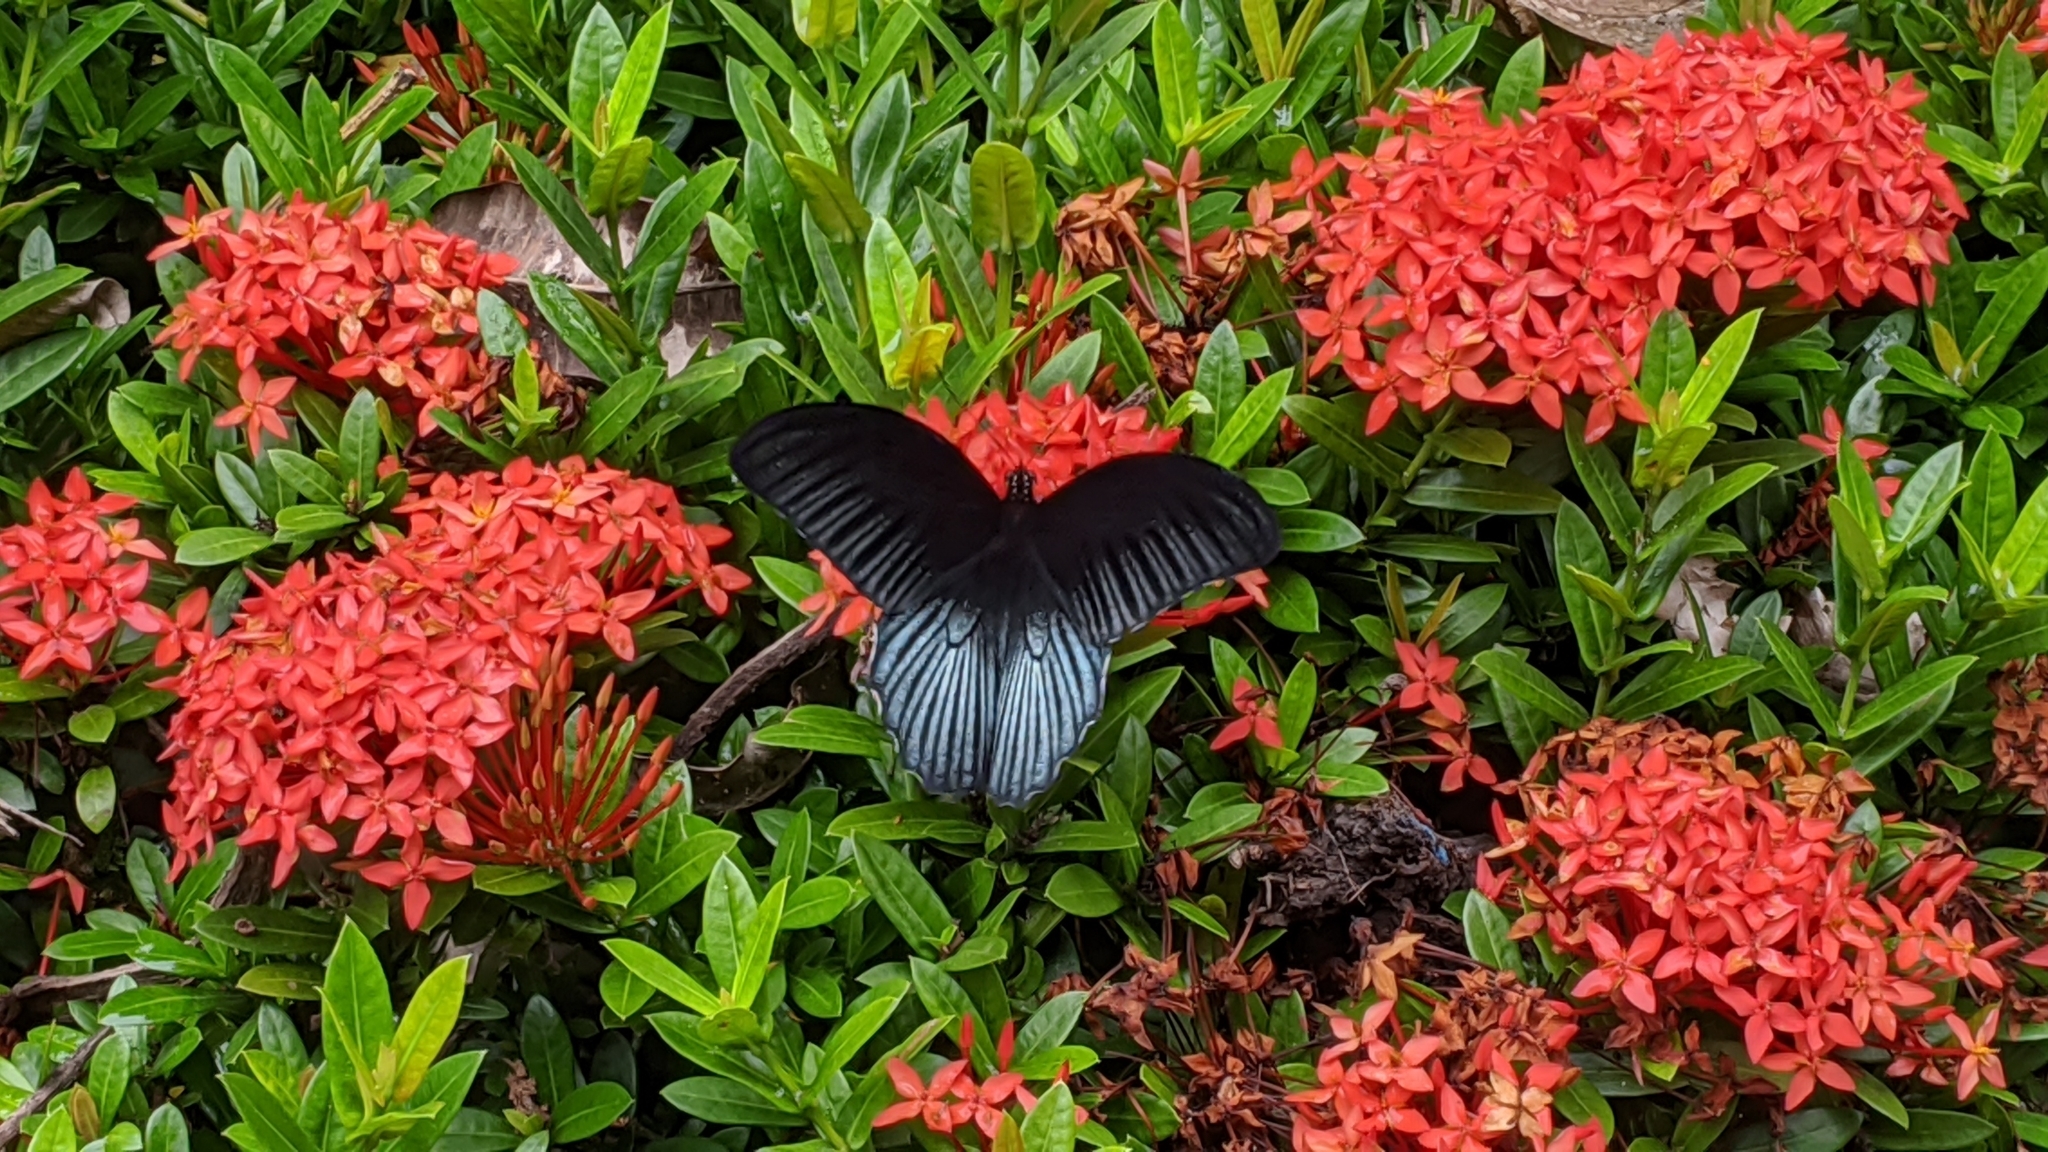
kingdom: Animalia
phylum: Arthropoda
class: Insecta
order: Lepidoptera
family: Papilionidae
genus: Papilio
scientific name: Papilio memnon
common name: Great mormon
